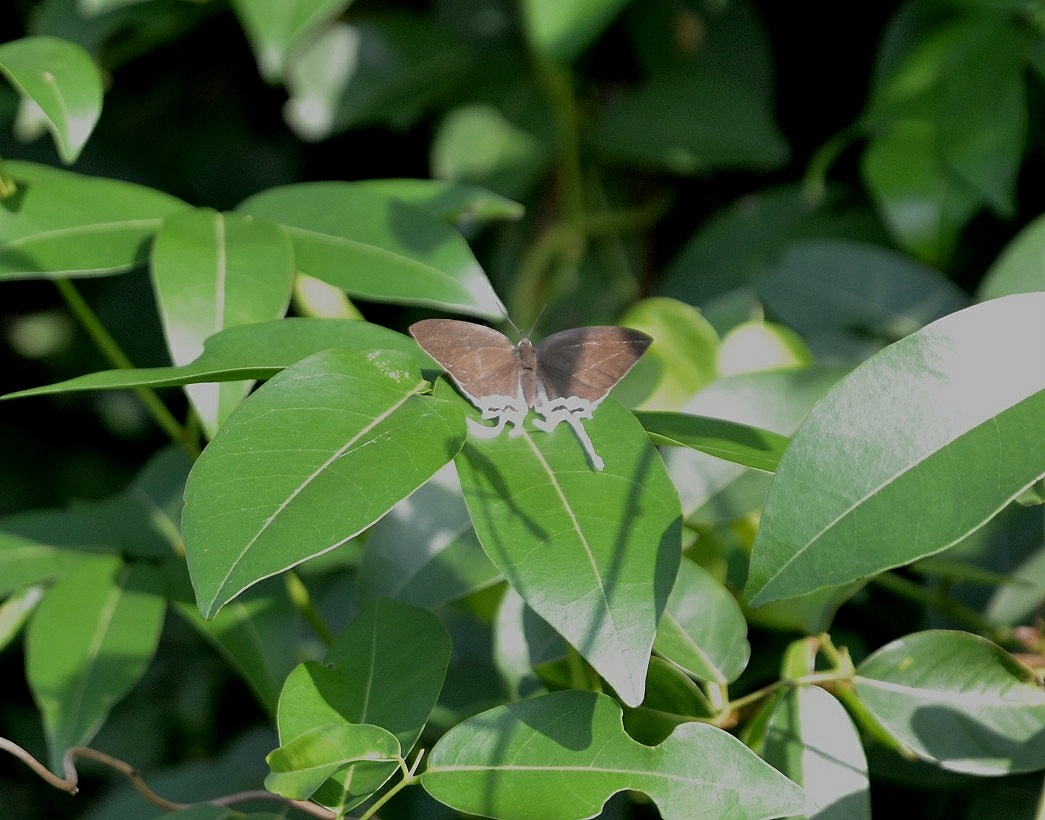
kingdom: Animalia
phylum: Arthropoda
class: Insecta
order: Lepidoptera
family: Lycaenidae
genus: Cheritra
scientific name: Cheritra freja
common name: Common imperial
